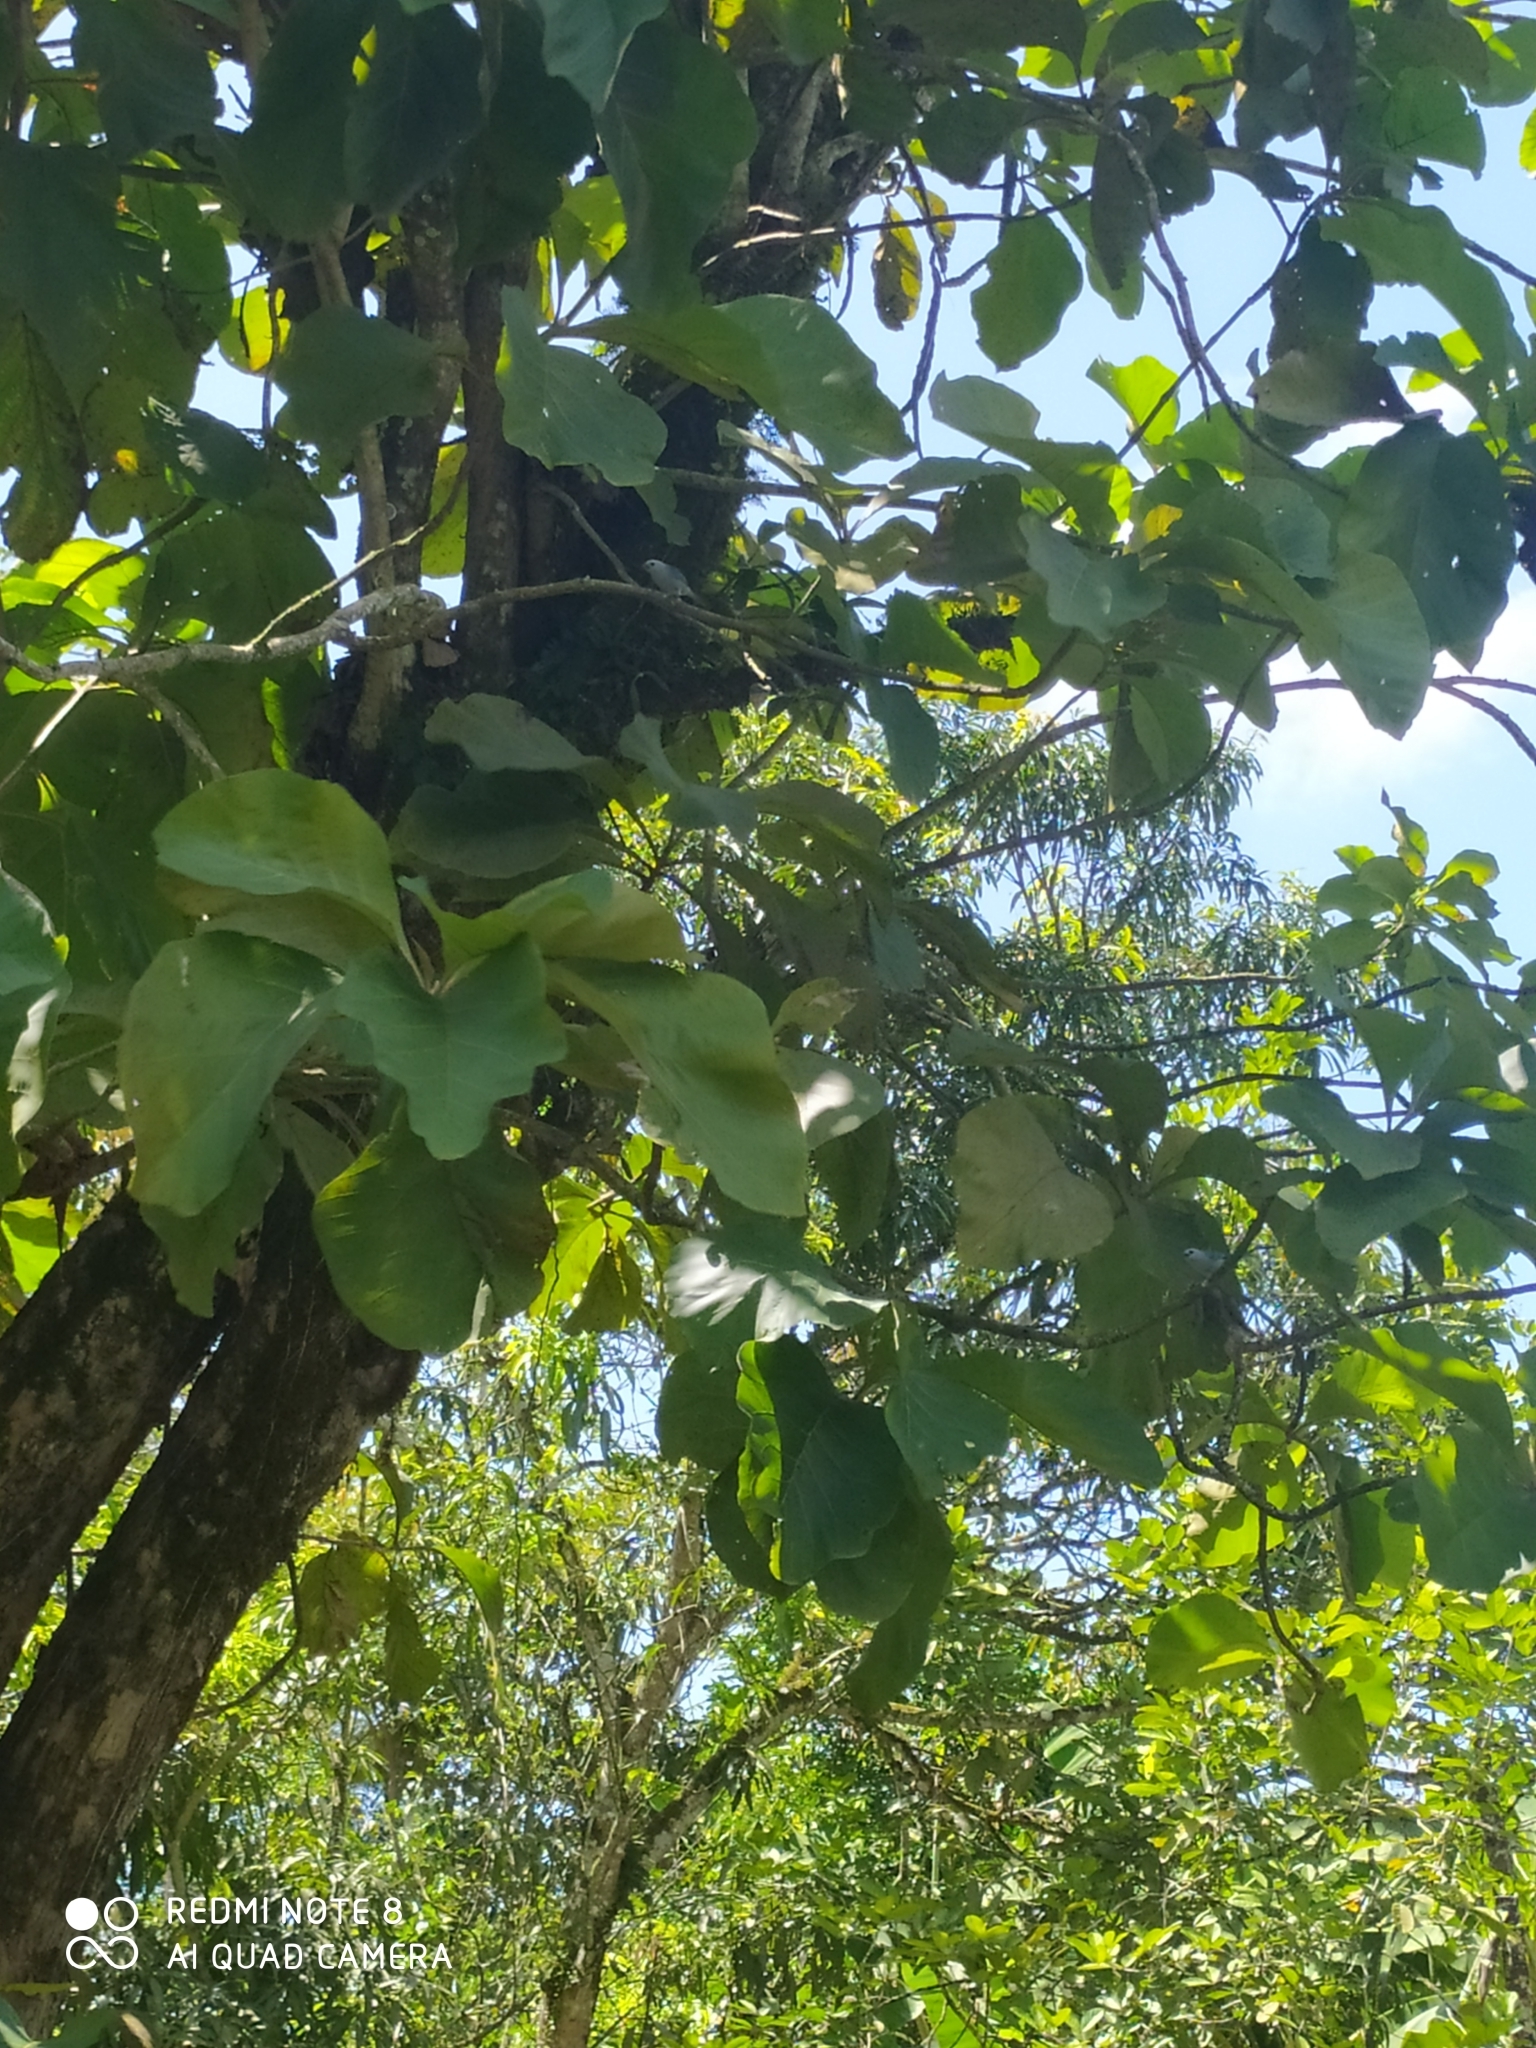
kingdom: Animalia
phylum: Chordata
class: Aves
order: Passeriformes
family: Thraupidae
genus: Thraupis
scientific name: Thraupis episcopus
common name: Blue-grey tanager
